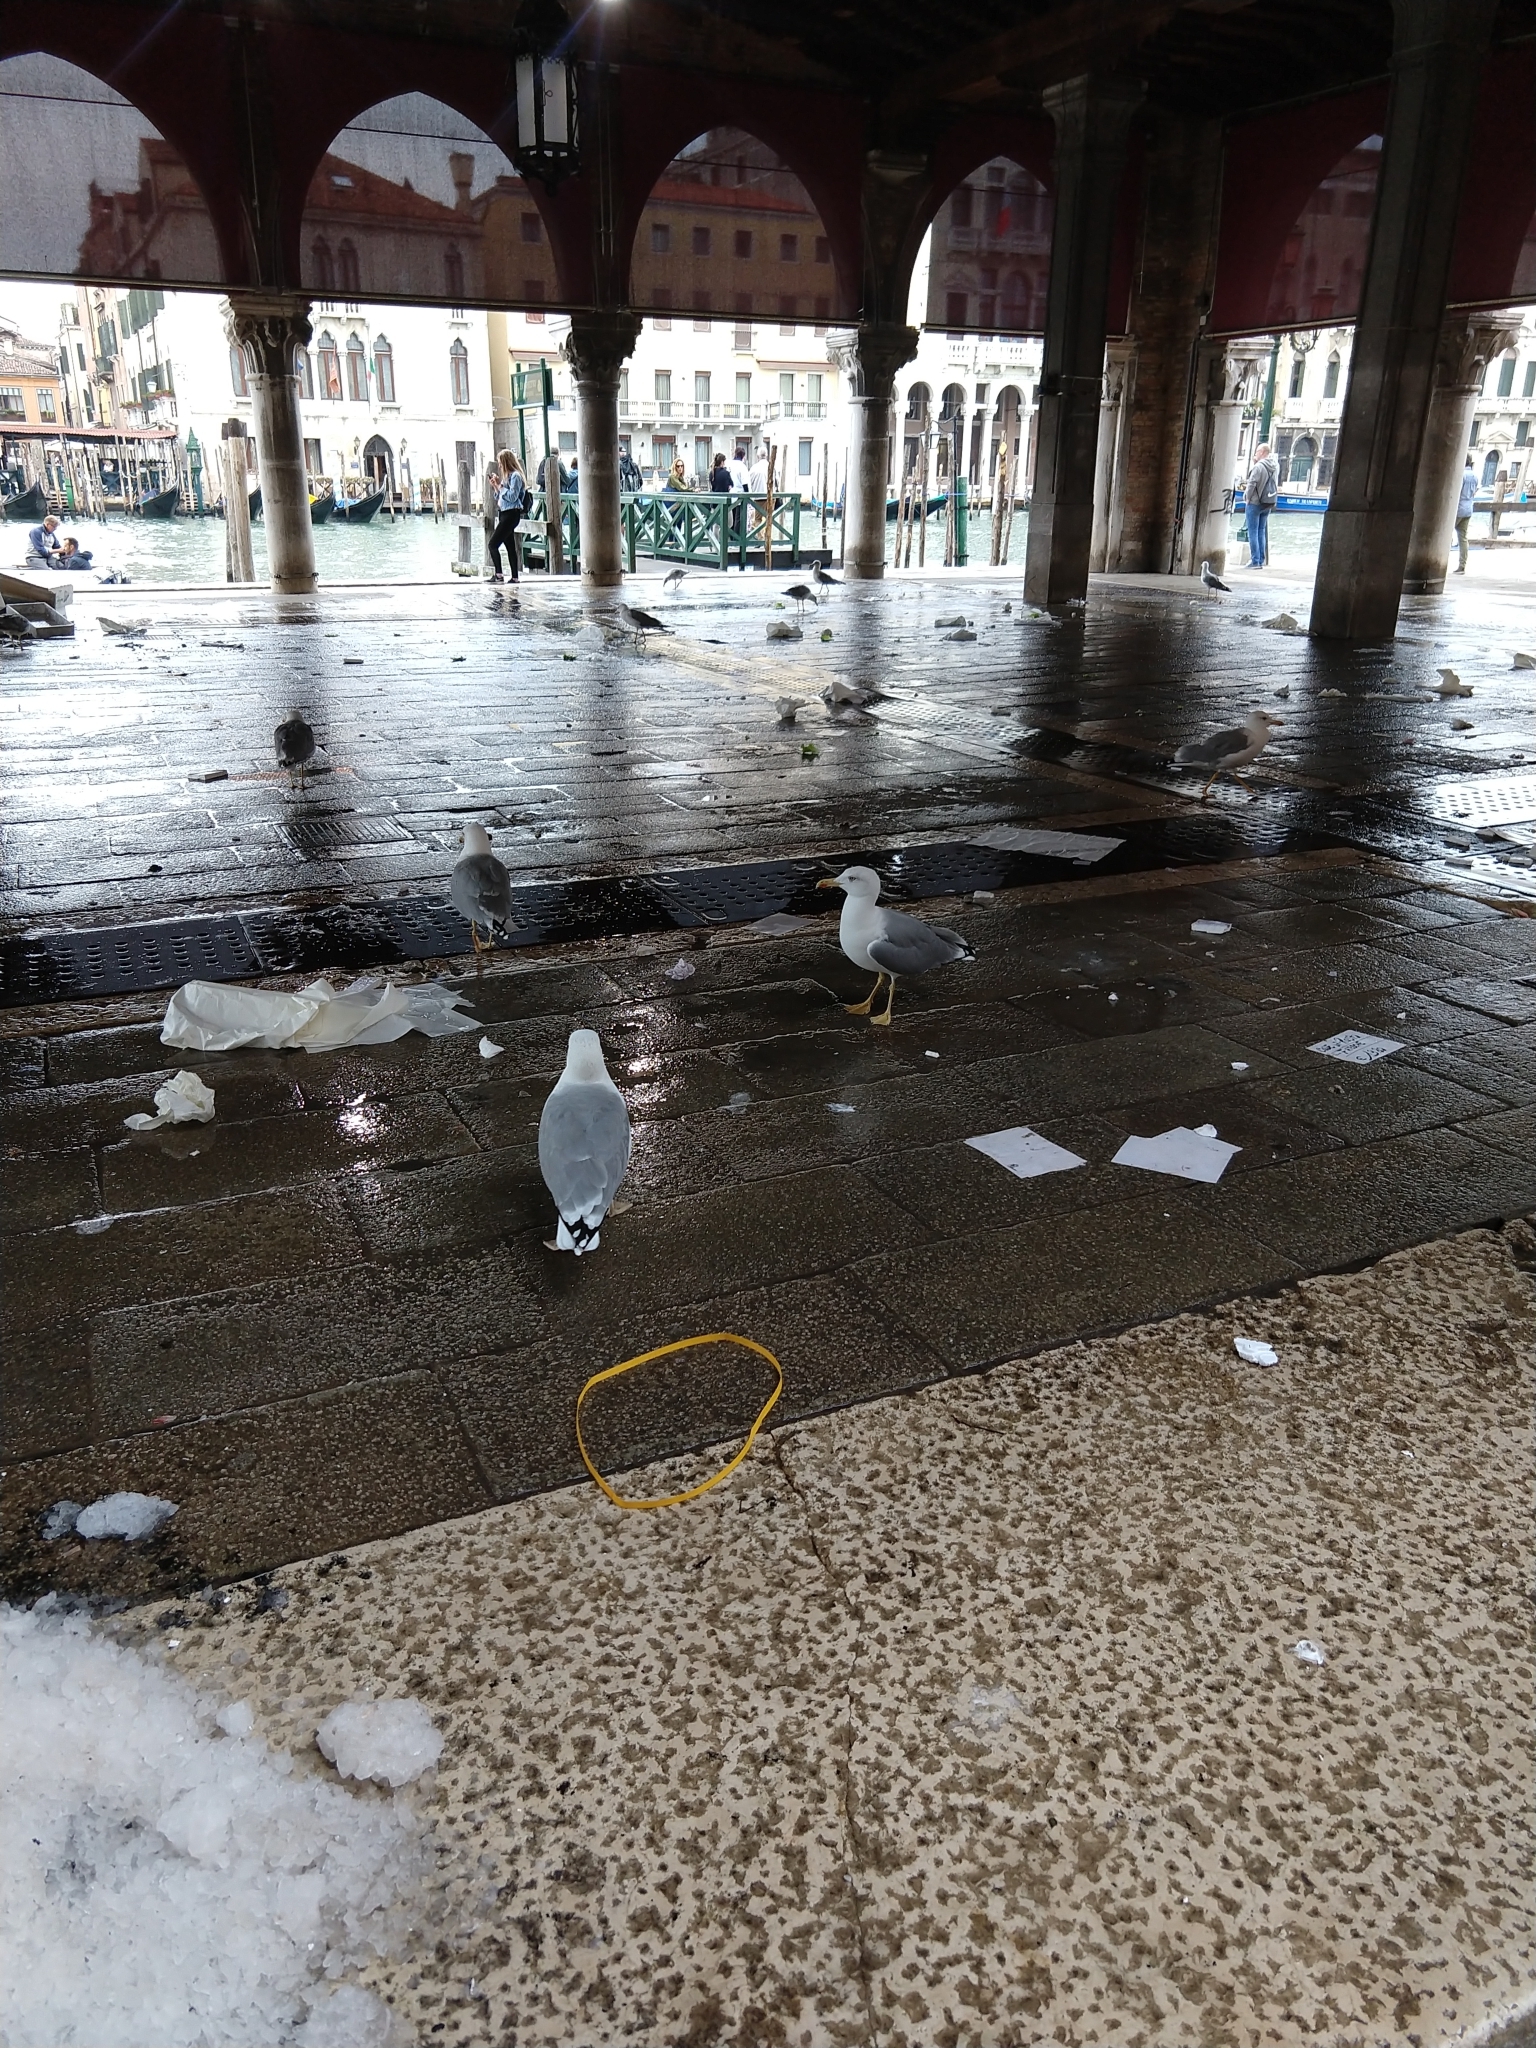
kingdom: Animalia
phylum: Chordata
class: Aves
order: Charadriiformes
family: Laridae
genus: Larus
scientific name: Larus michahellis
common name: Yellow-legged gull
